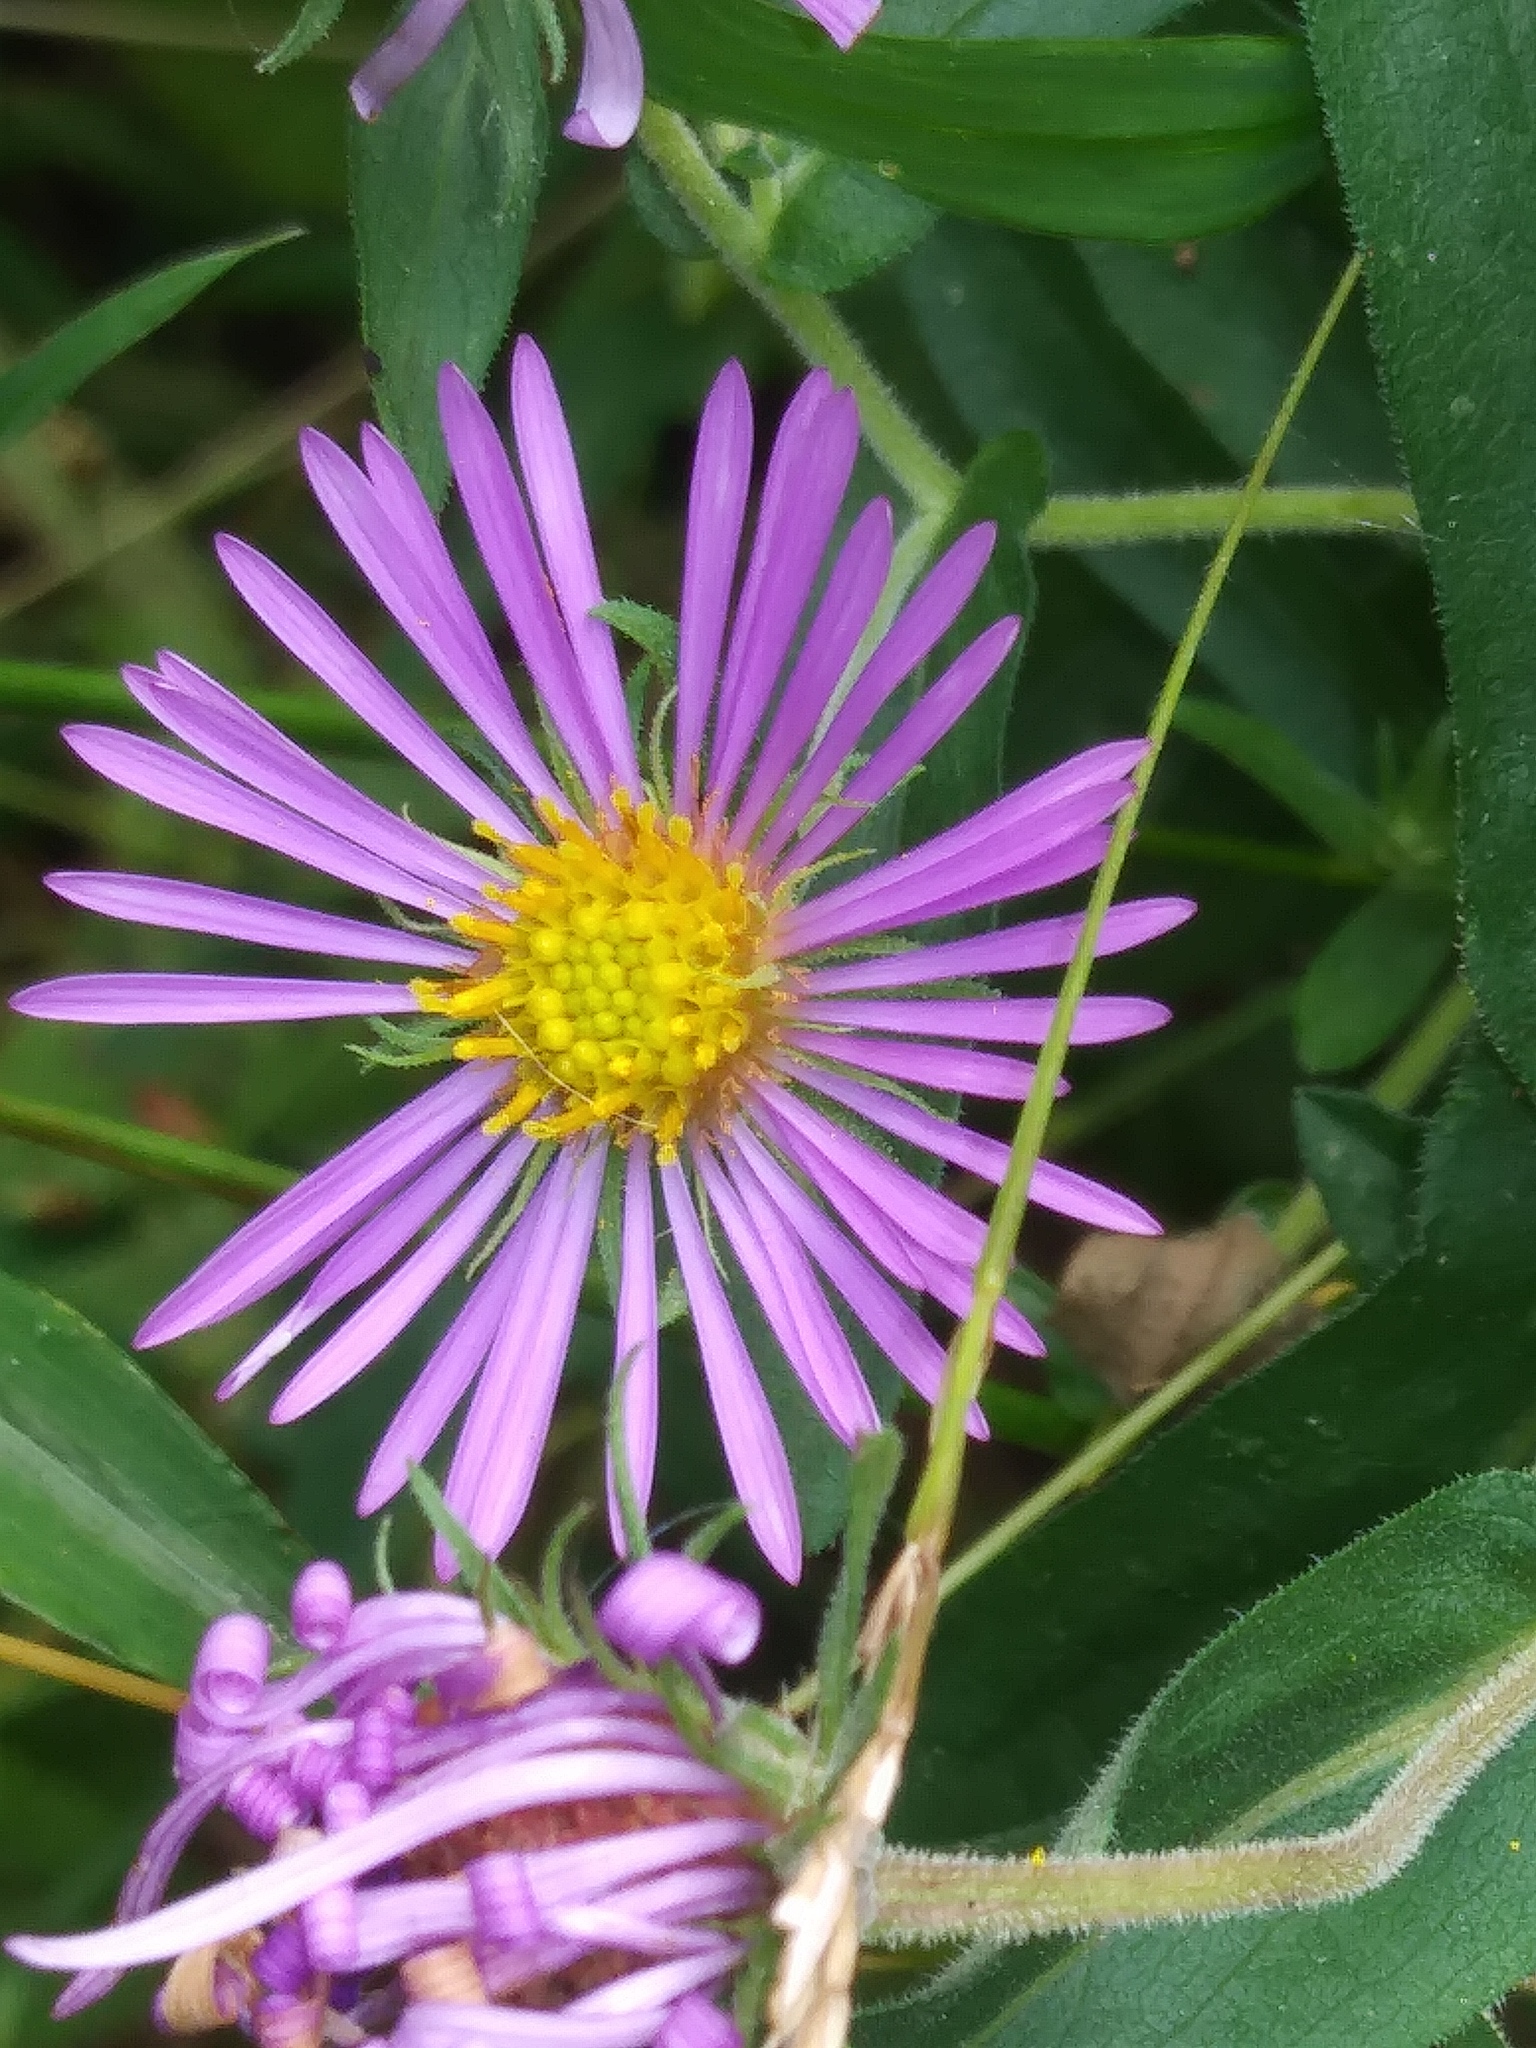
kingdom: Plantae
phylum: Tracheophyta
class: Magnoliopsida
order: Asterales
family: Asteraceae
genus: Symphyotrichum
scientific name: Symphyotrichum novae-angliae
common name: Michaelmas daisy
